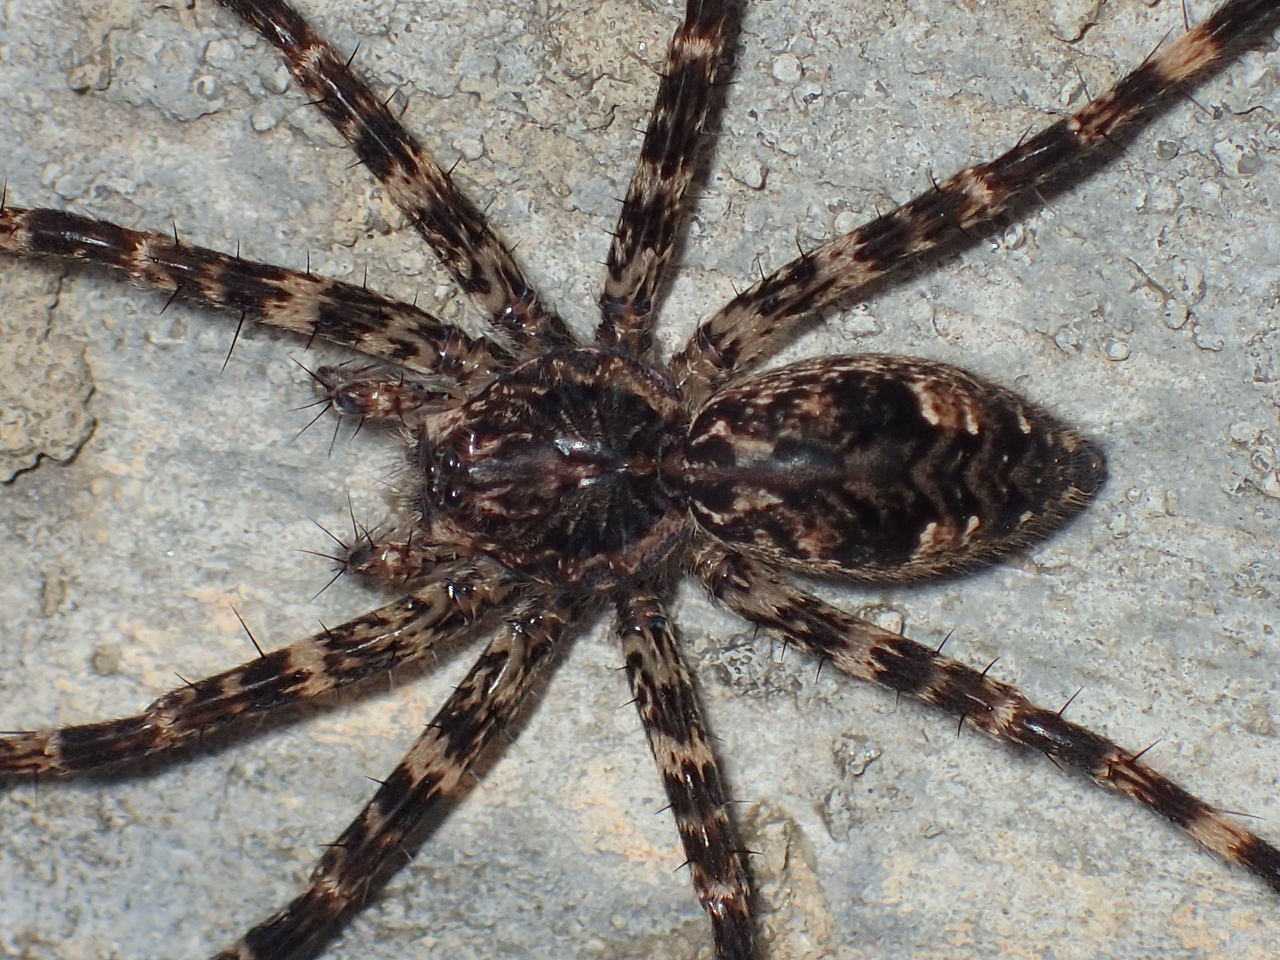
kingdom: Animalia
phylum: Arthropoda
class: Arachnida
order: Araneae
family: Pisauridae
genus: Dolomedes
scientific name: Dolomedes tenebrosus
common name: Dark fishing spider
